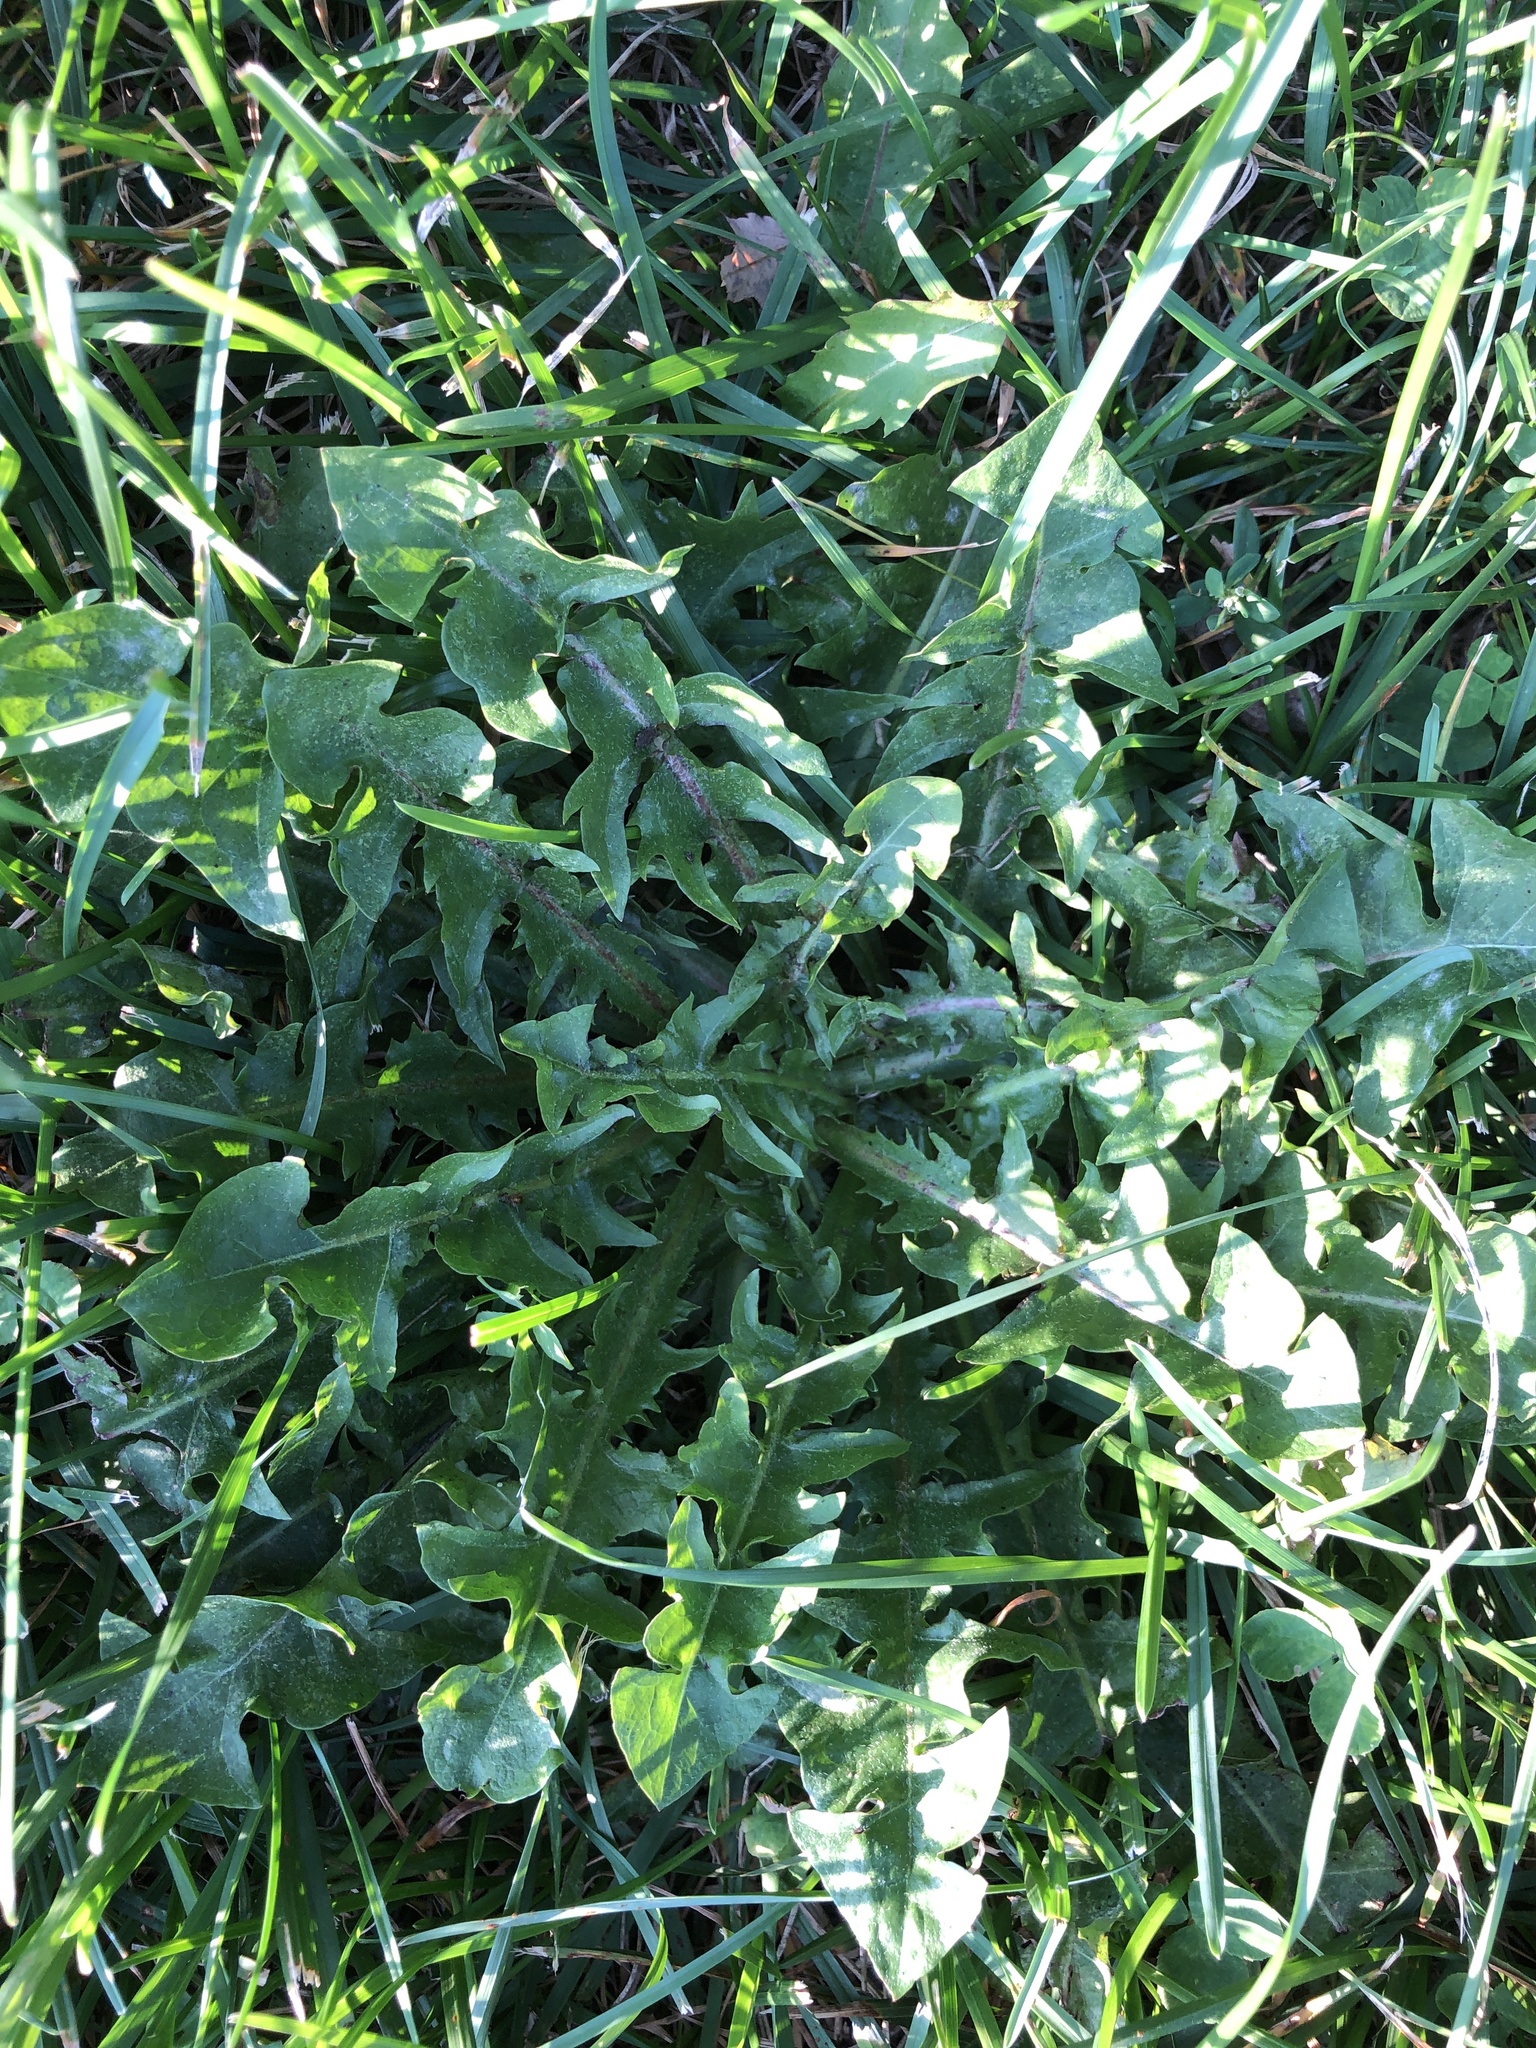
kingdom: Plantae
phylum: Tracheophyta
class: Magnoliopsida
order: Asterales
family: Asteraceae
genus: Taraxacum
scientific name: Taraxacum
